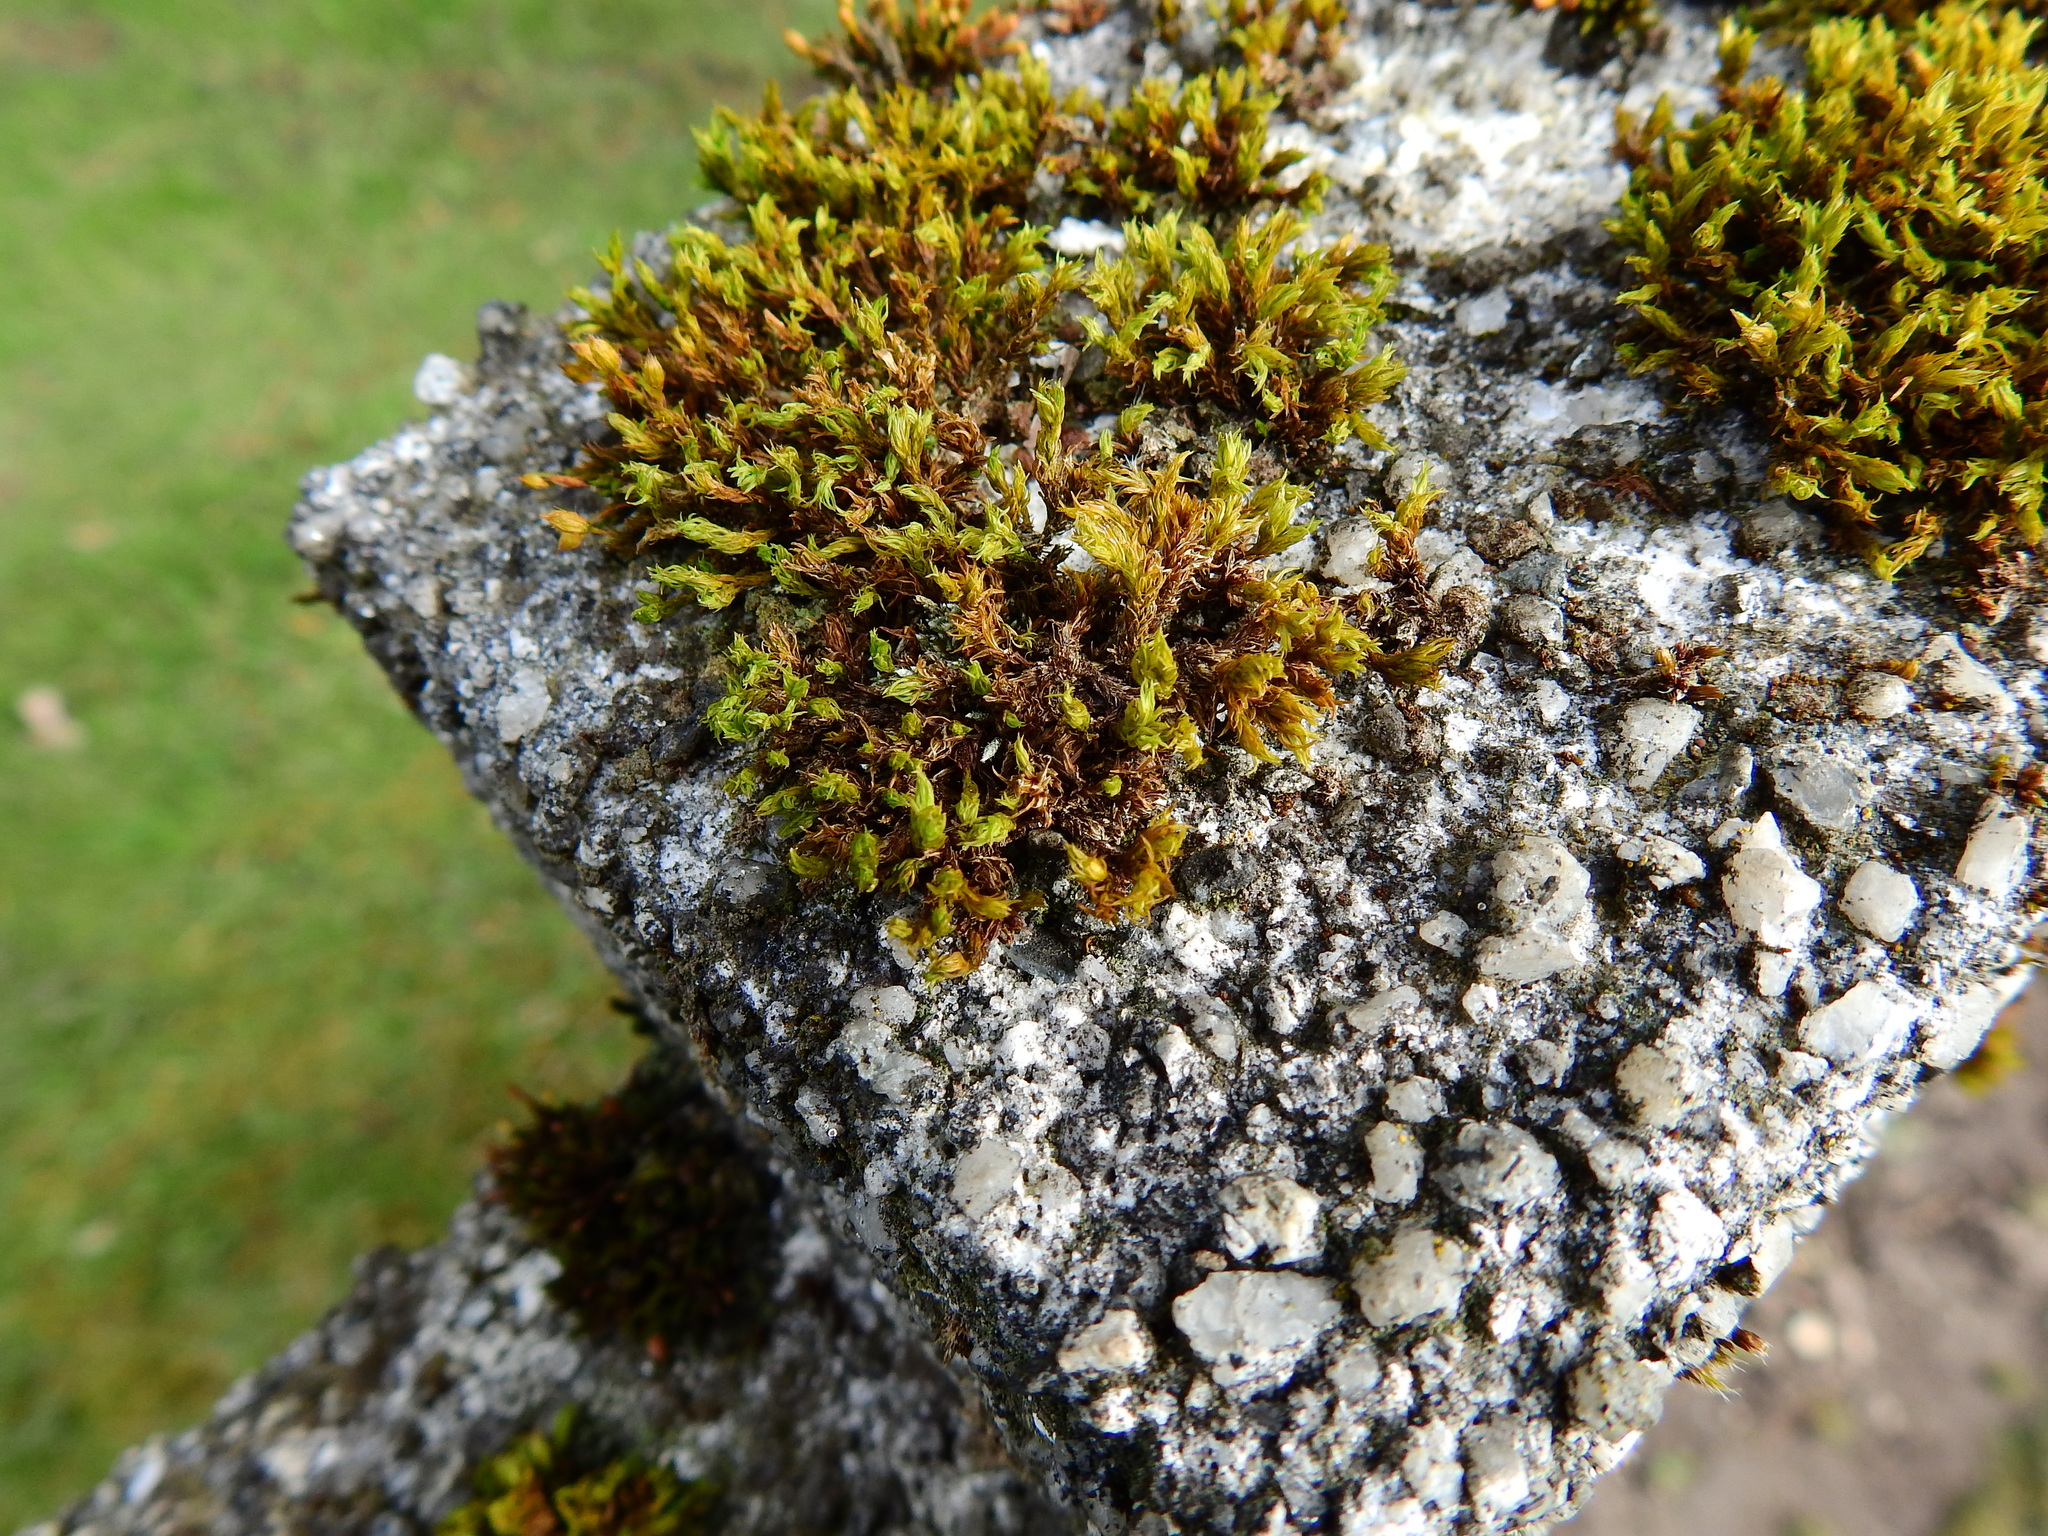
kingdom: Plantae
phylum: Bryophyta
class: Bryopsida
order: Orthotrichales
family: Orthotrichaceae
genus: Orthotrichum
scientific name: Orthotrichum anomalum
